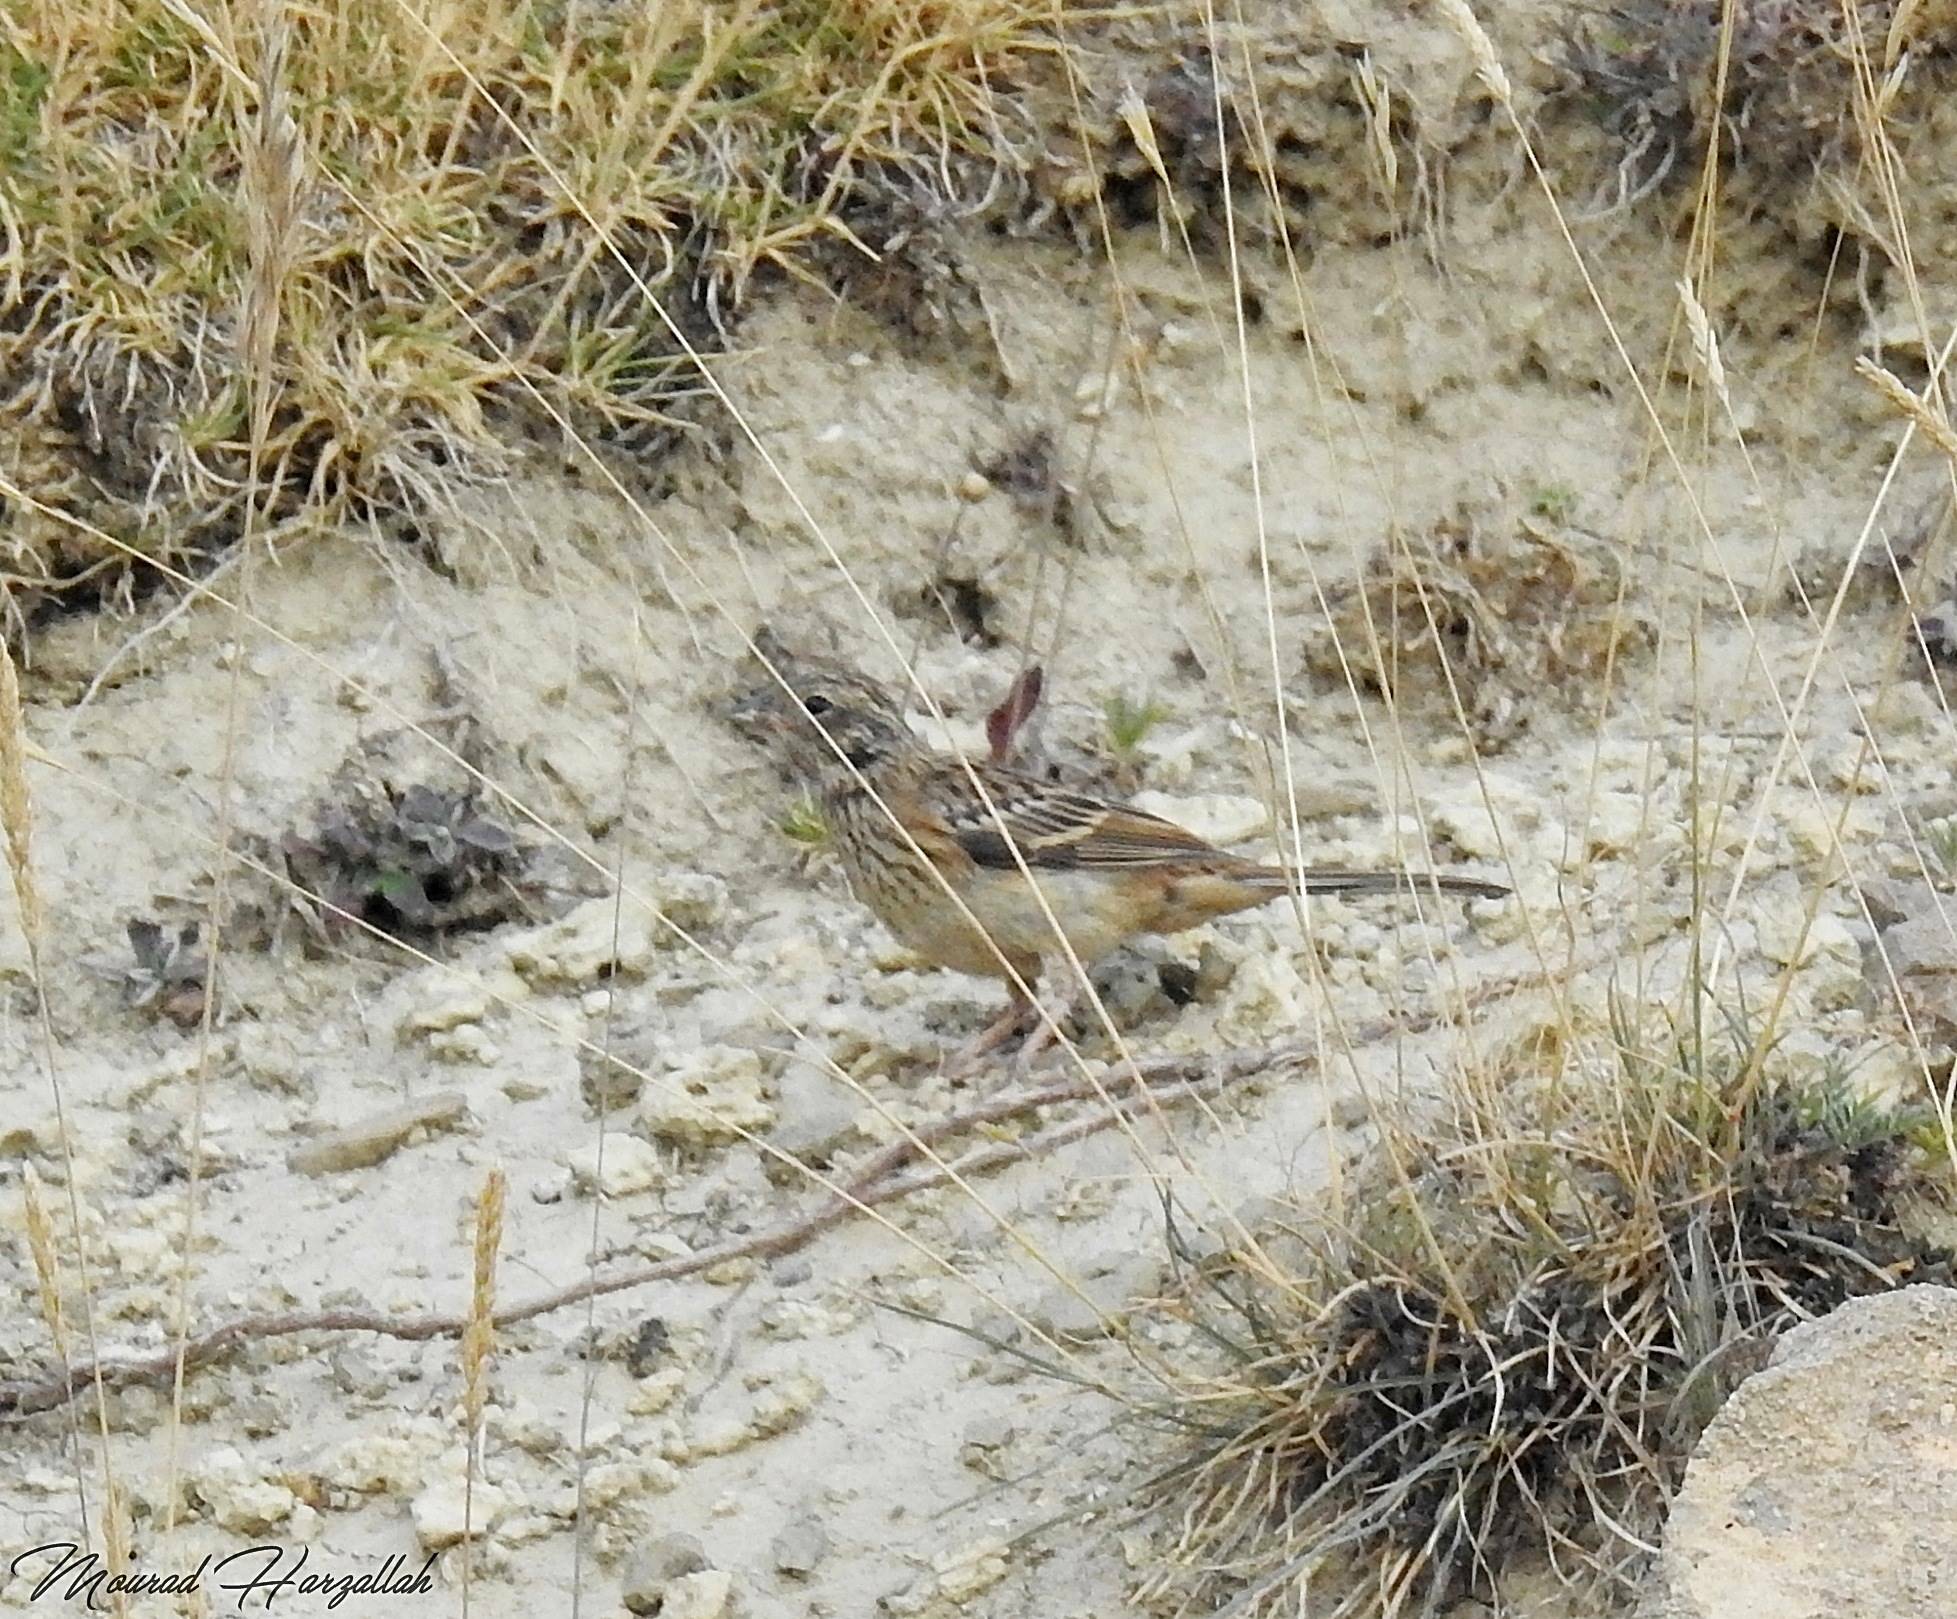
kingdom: Animalia
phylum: Chordata
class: Aves
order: Passeriformes
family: Emberizidae
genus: Emberiza
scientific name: Emberiza cia
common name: Rock bunting
